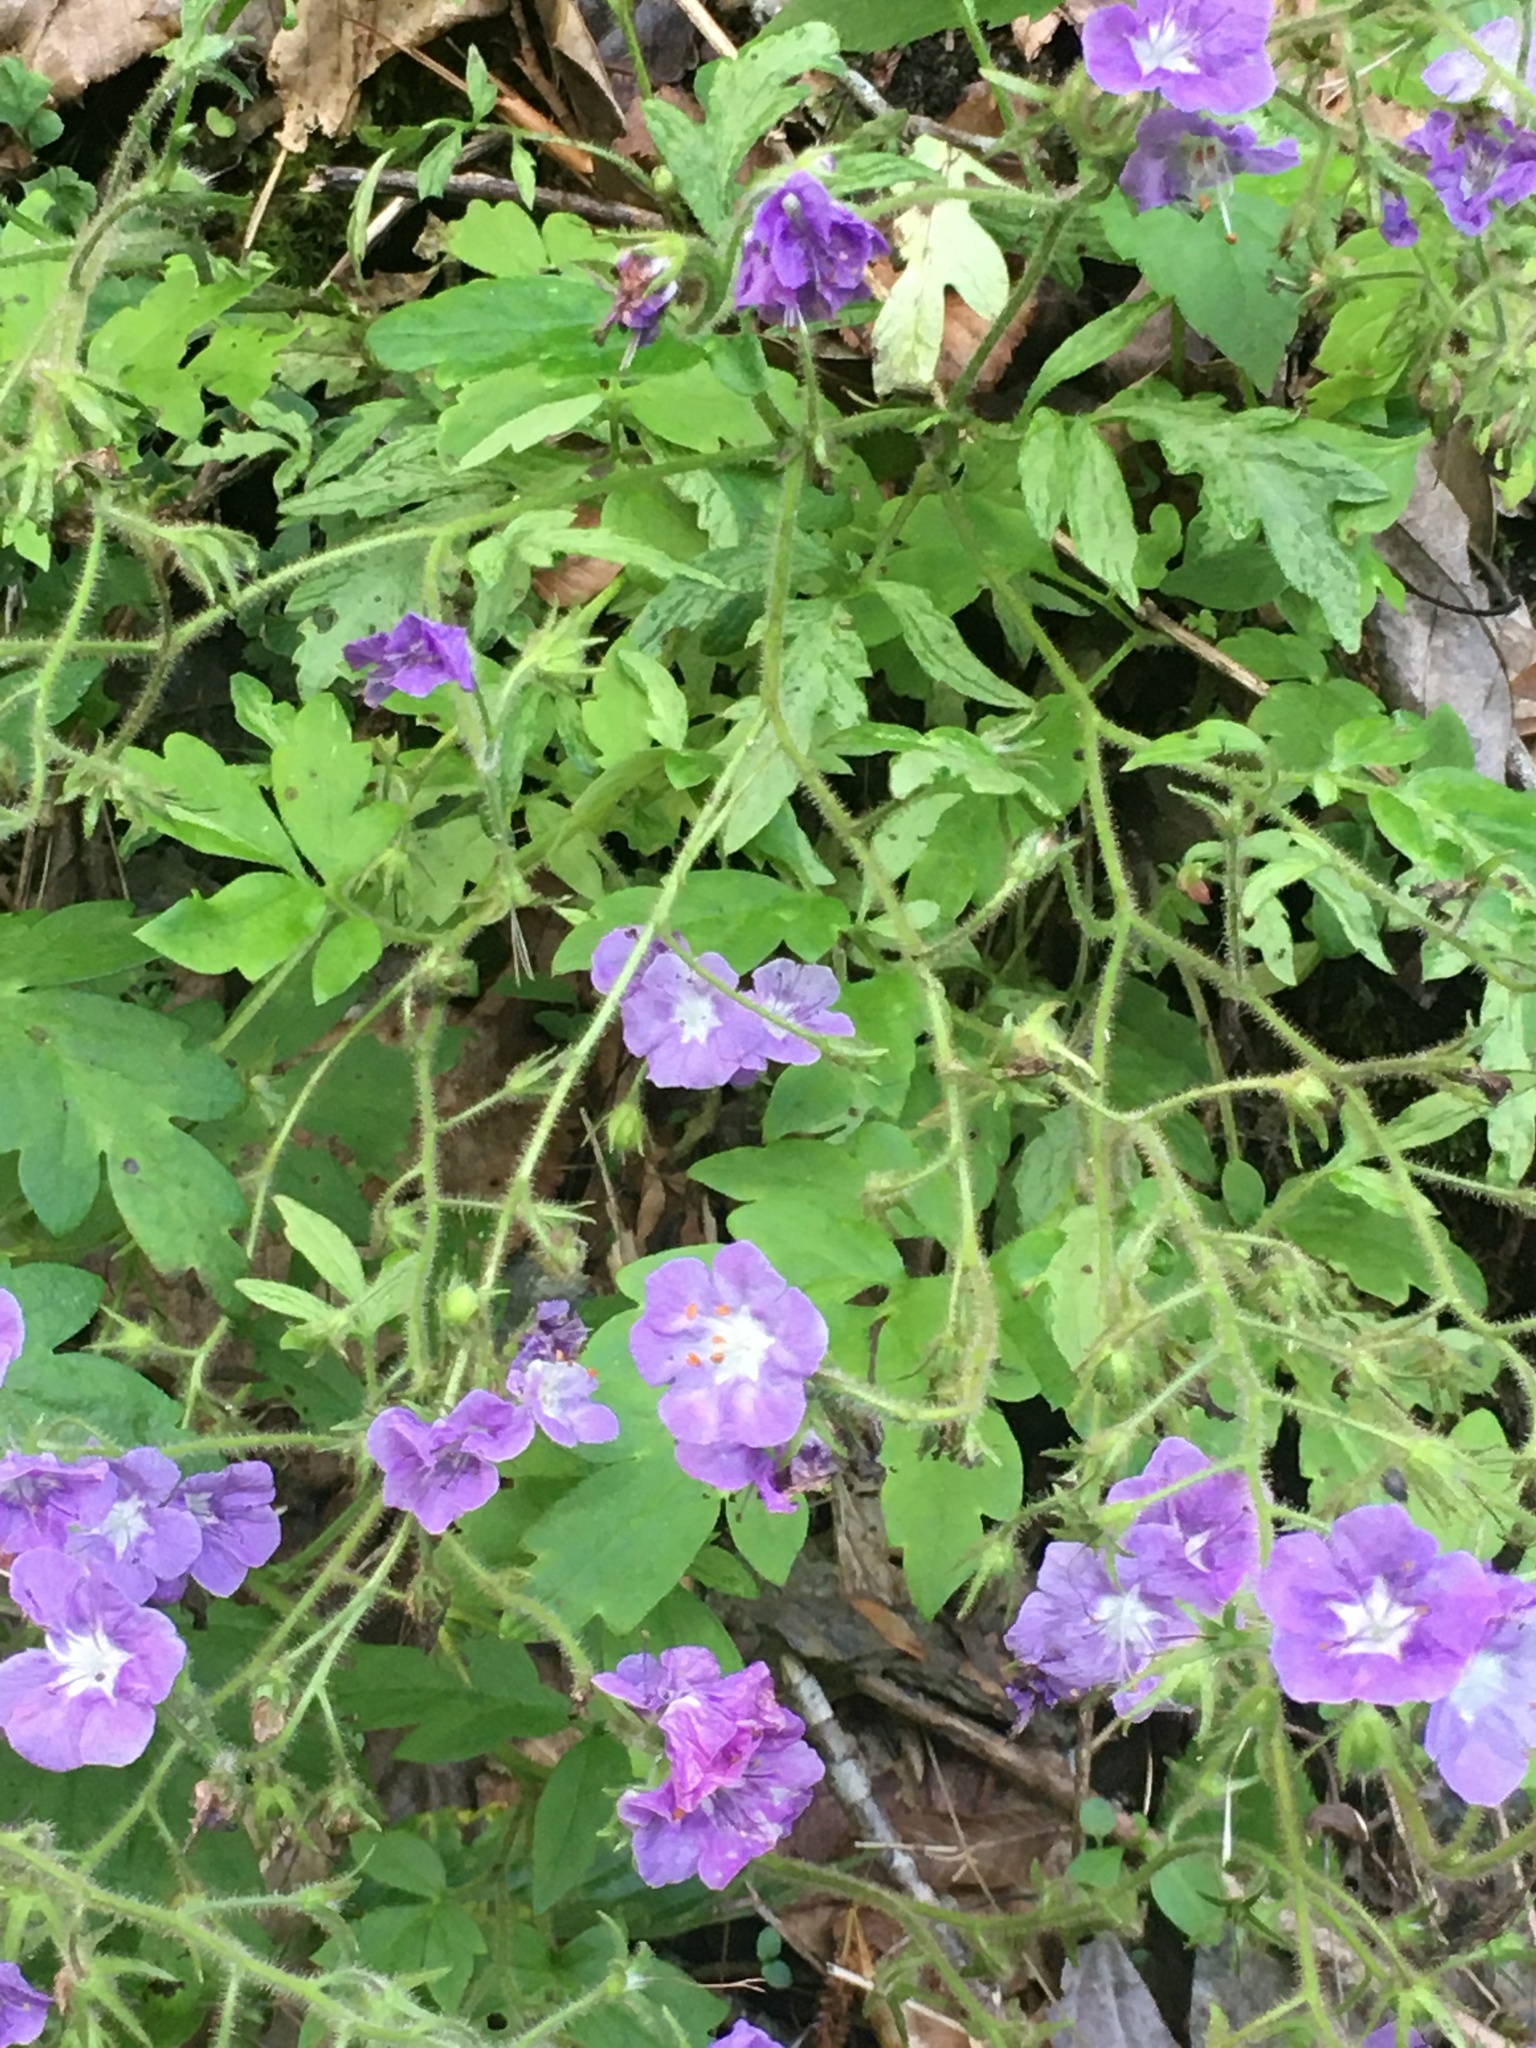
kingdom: Plantae
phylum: Tracheophyta
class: Magnoliopsida
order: Boraginales
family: Hydrophyllaceae
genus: Phacelia
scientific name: Phacelia bipinnatifida
